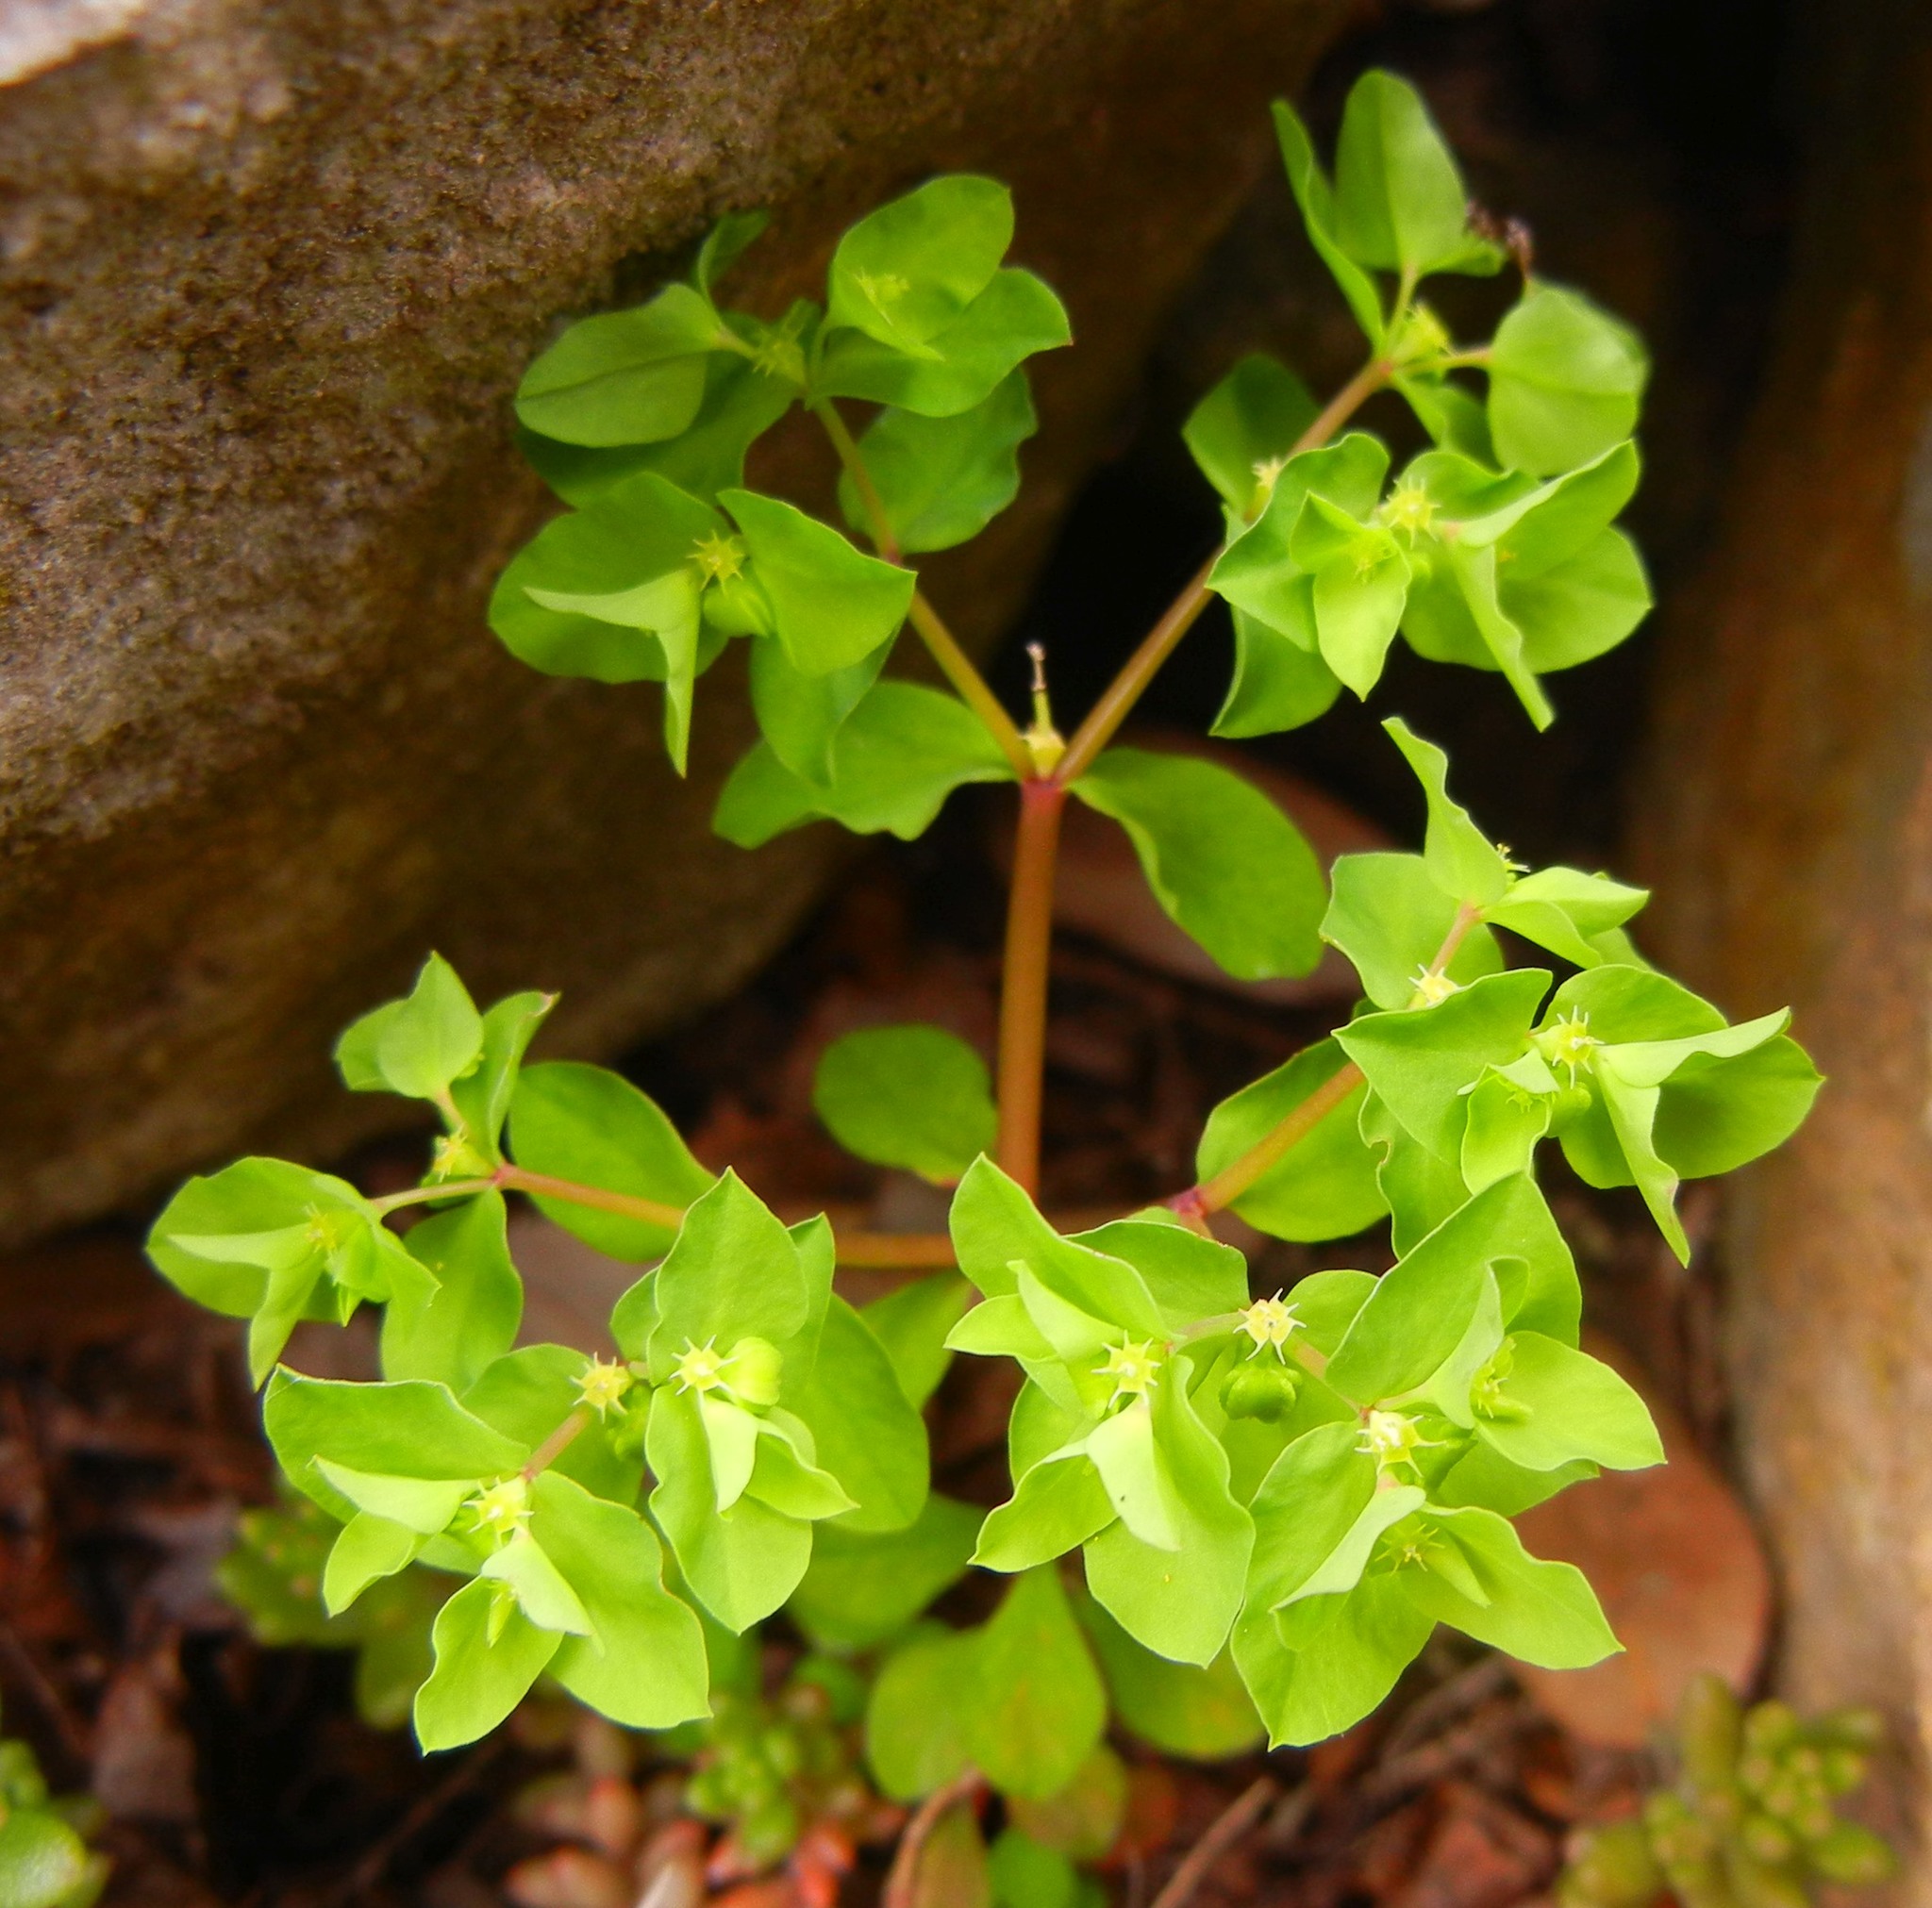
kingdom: Plantae
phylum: Tracheophyta
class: Magnoliopsida
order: Malpighiales
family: Euphorbiaceae
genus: Euphorbia
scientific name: Euphorbia peplus
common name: Petty spurge
